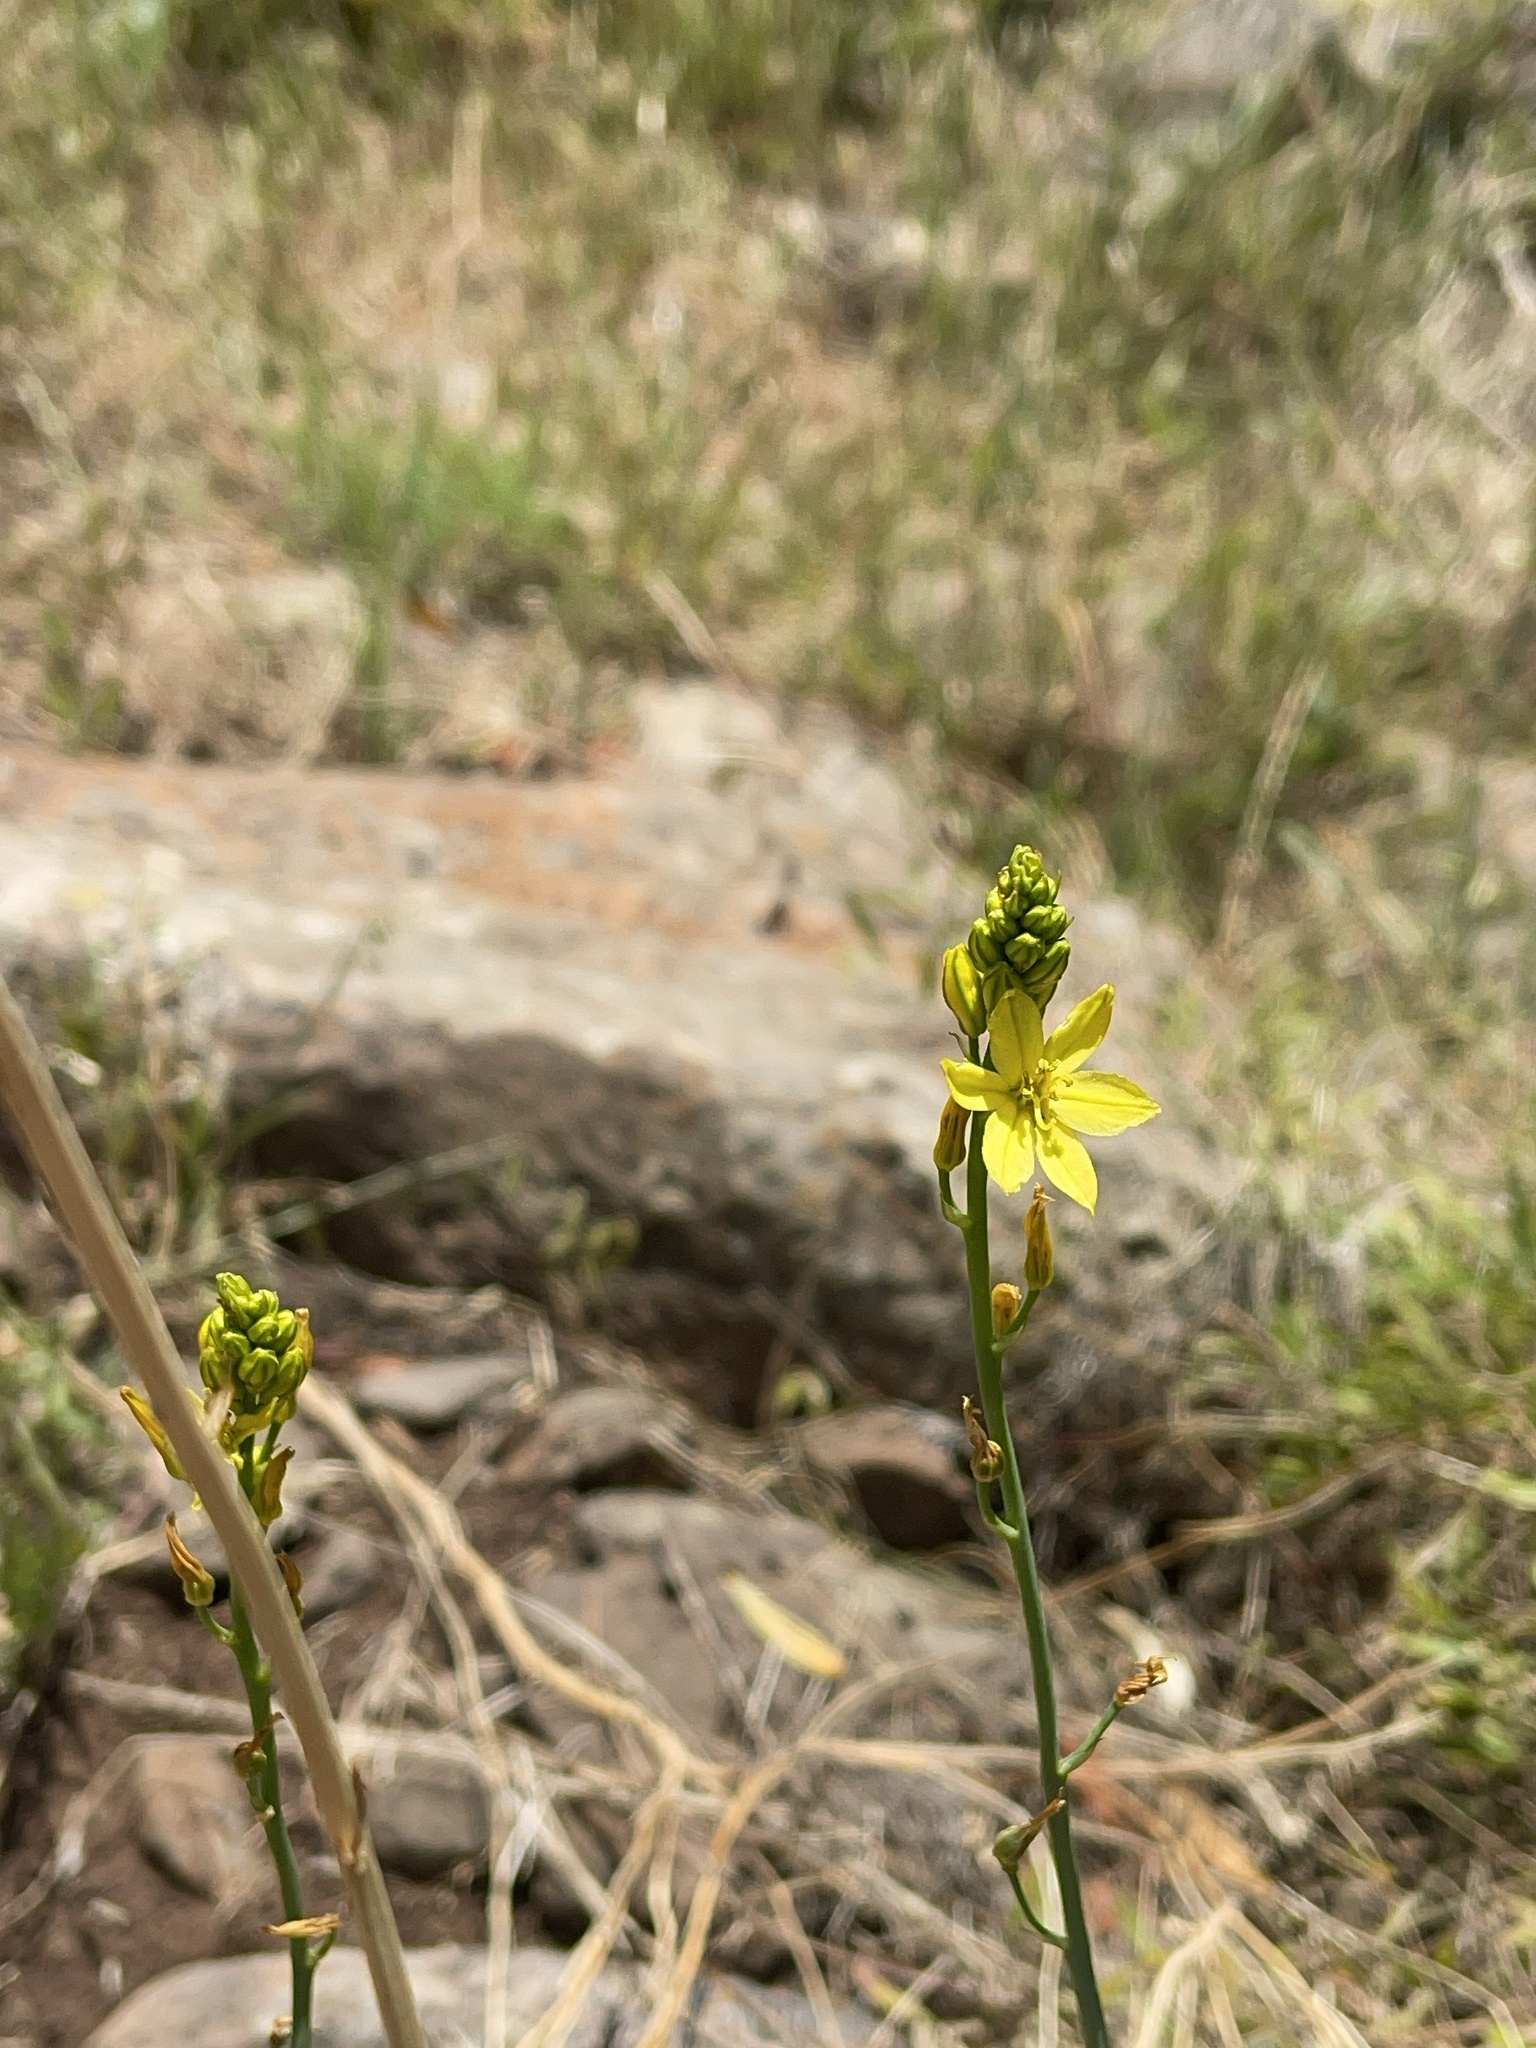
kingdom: Plantae
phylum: Tracheophyta
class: Liliopsida
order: Asparagales
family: Asphodelaceae
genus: Bulbine
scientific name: Bulbine bulbosa
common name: Golden-lily
